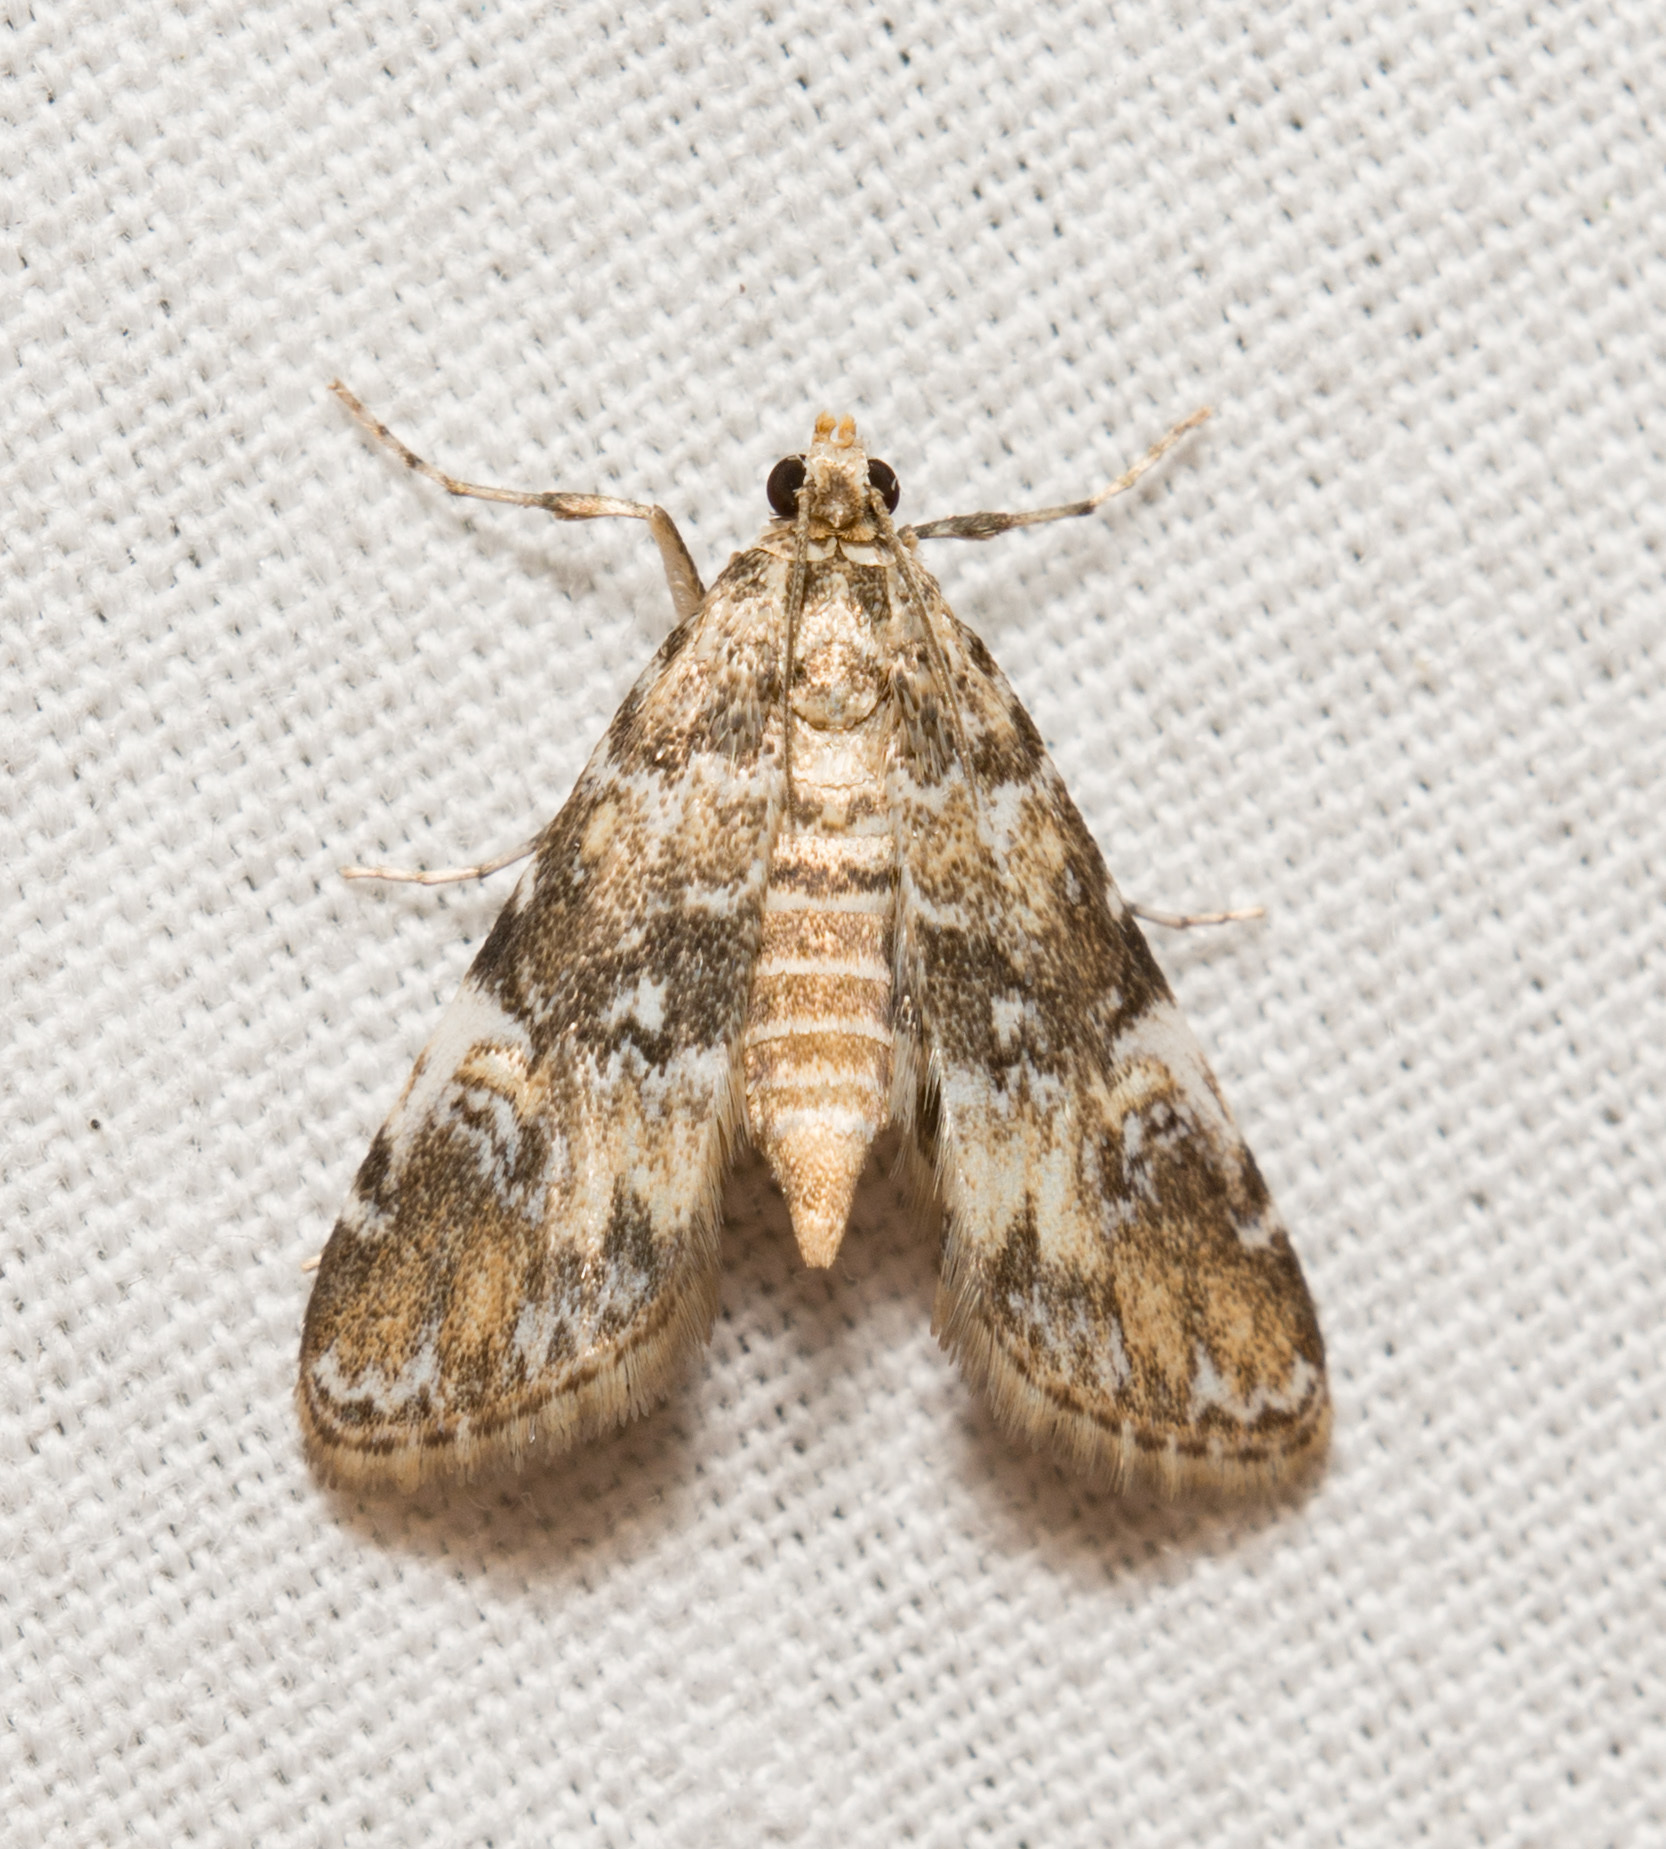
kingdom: Animalia
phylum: Arthropoda
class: Insecta
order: Lepidoptera
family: Crambidae
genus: Elophila
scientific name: Elophila obliteralis
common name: Waterlily leafcutter moth
